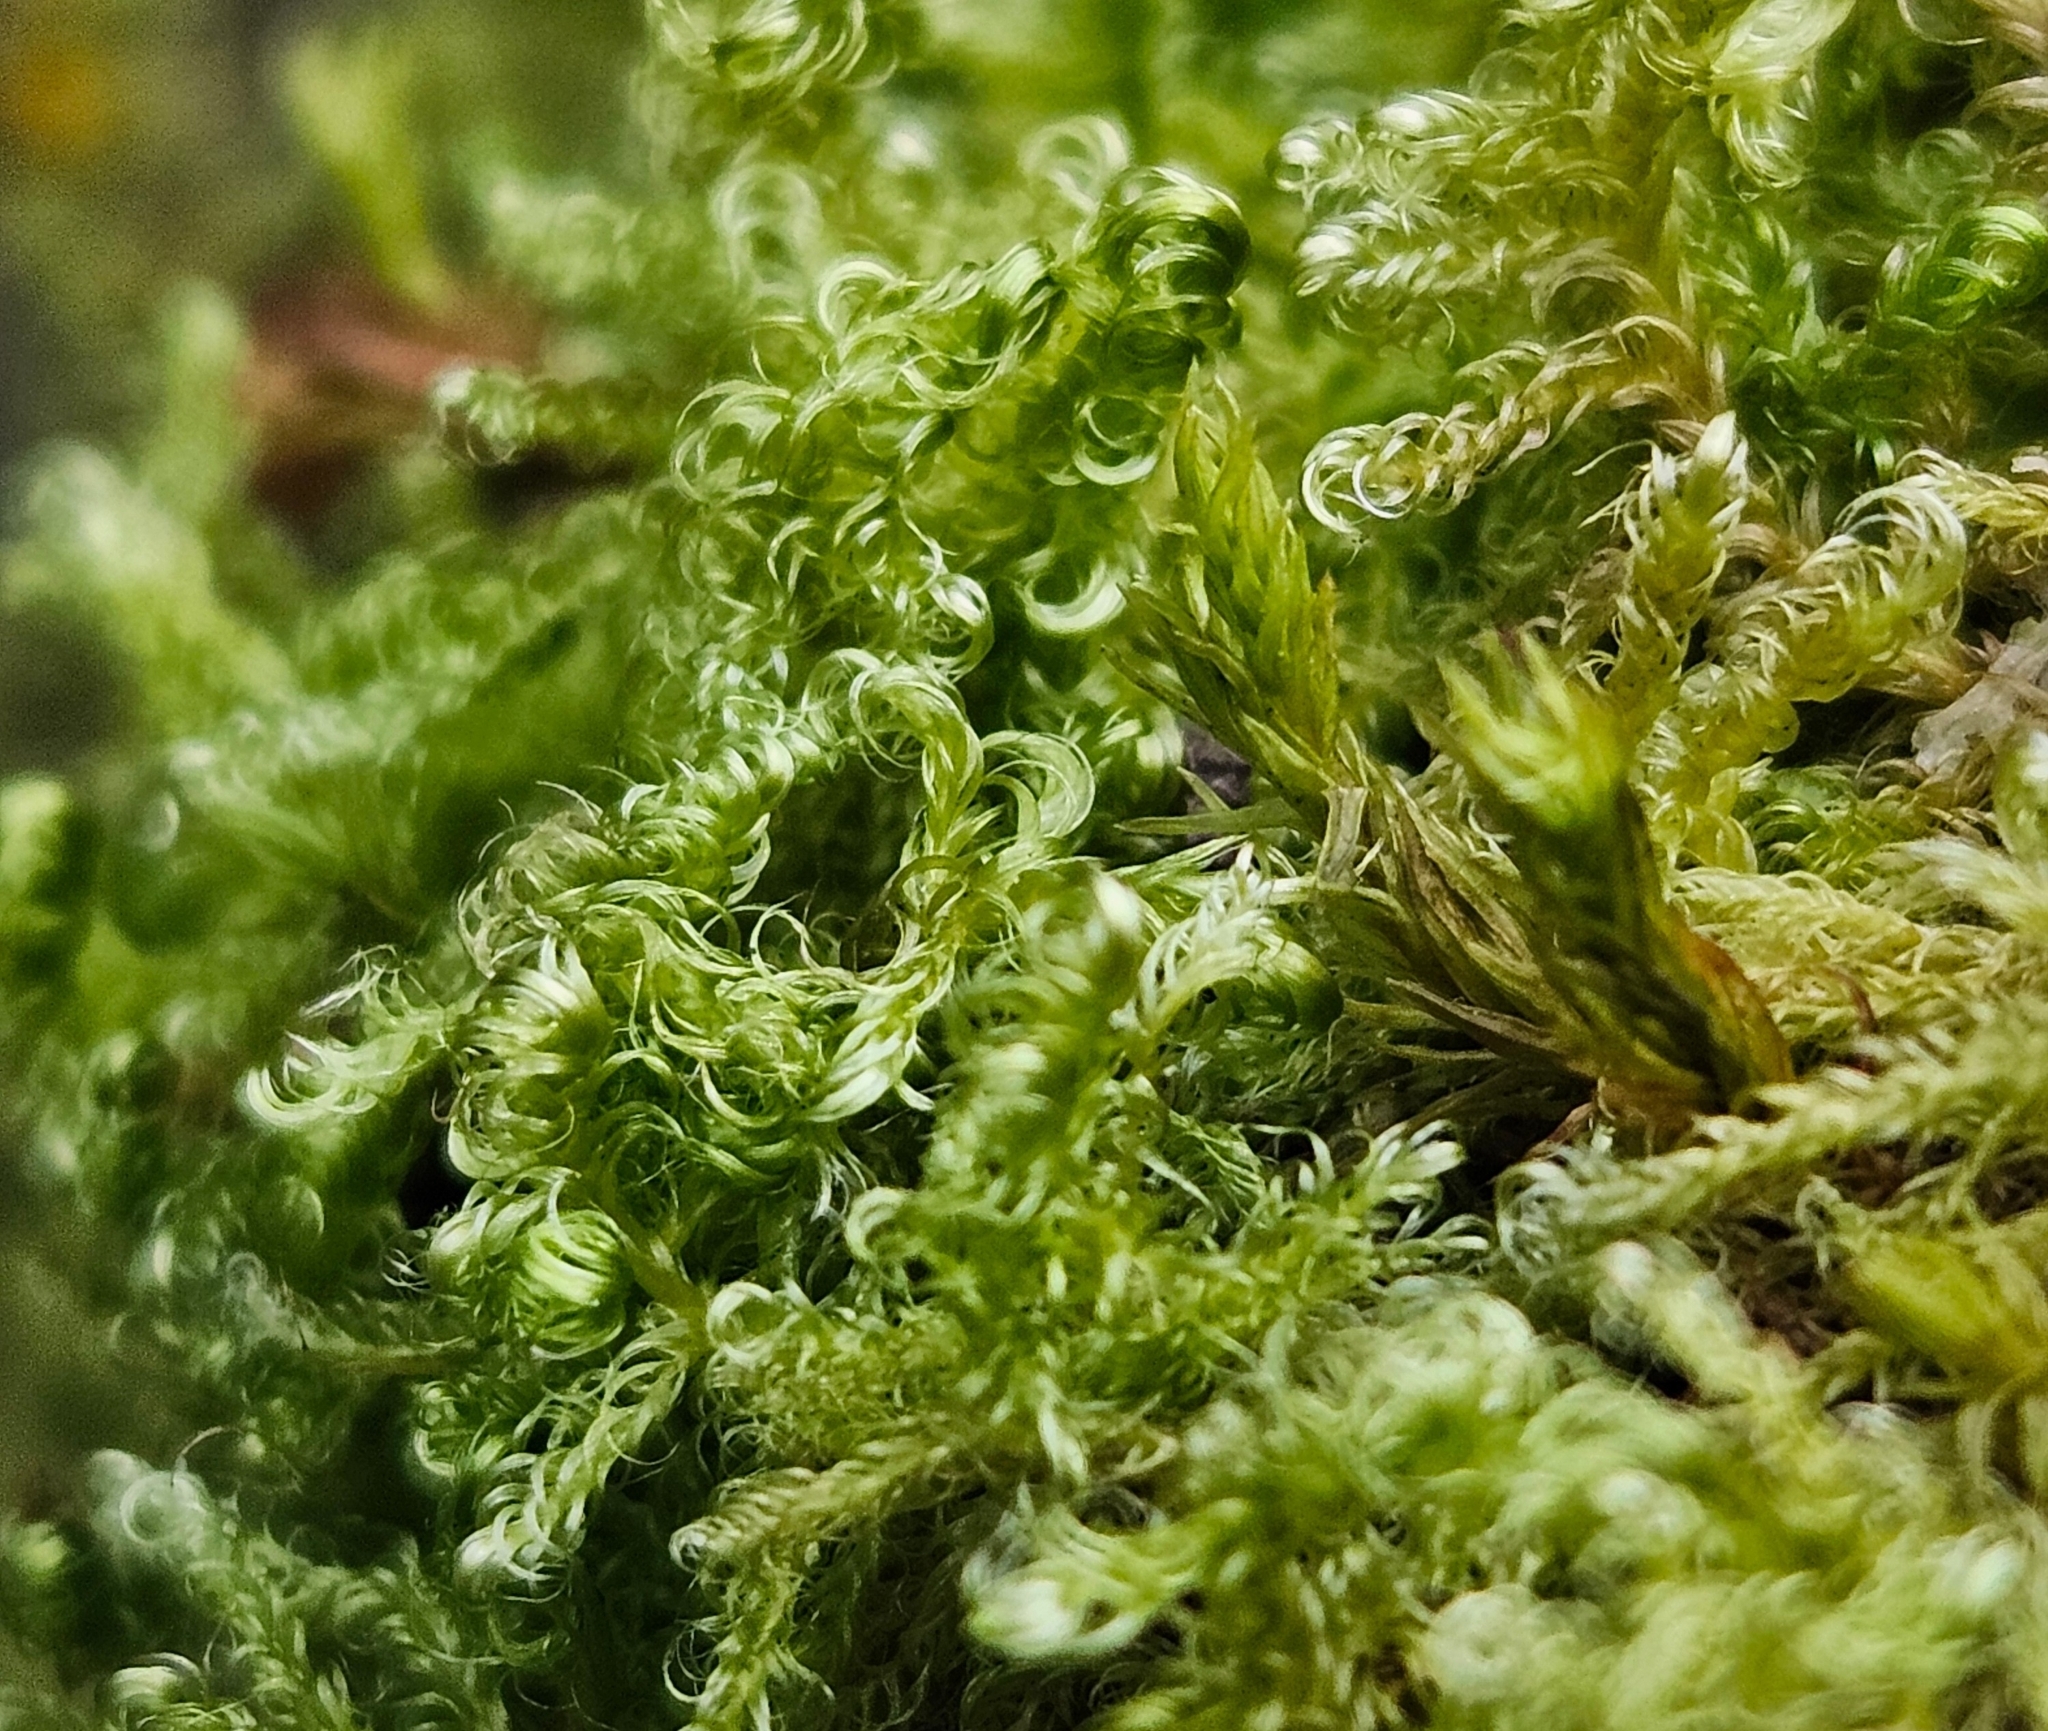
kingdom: Plantae
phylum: Bryophyta
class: Bryopsida
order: Hypnales
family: Scorpidiaceae
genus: Sanionia
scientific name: Sanionia uncinata
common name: Sickle moss
